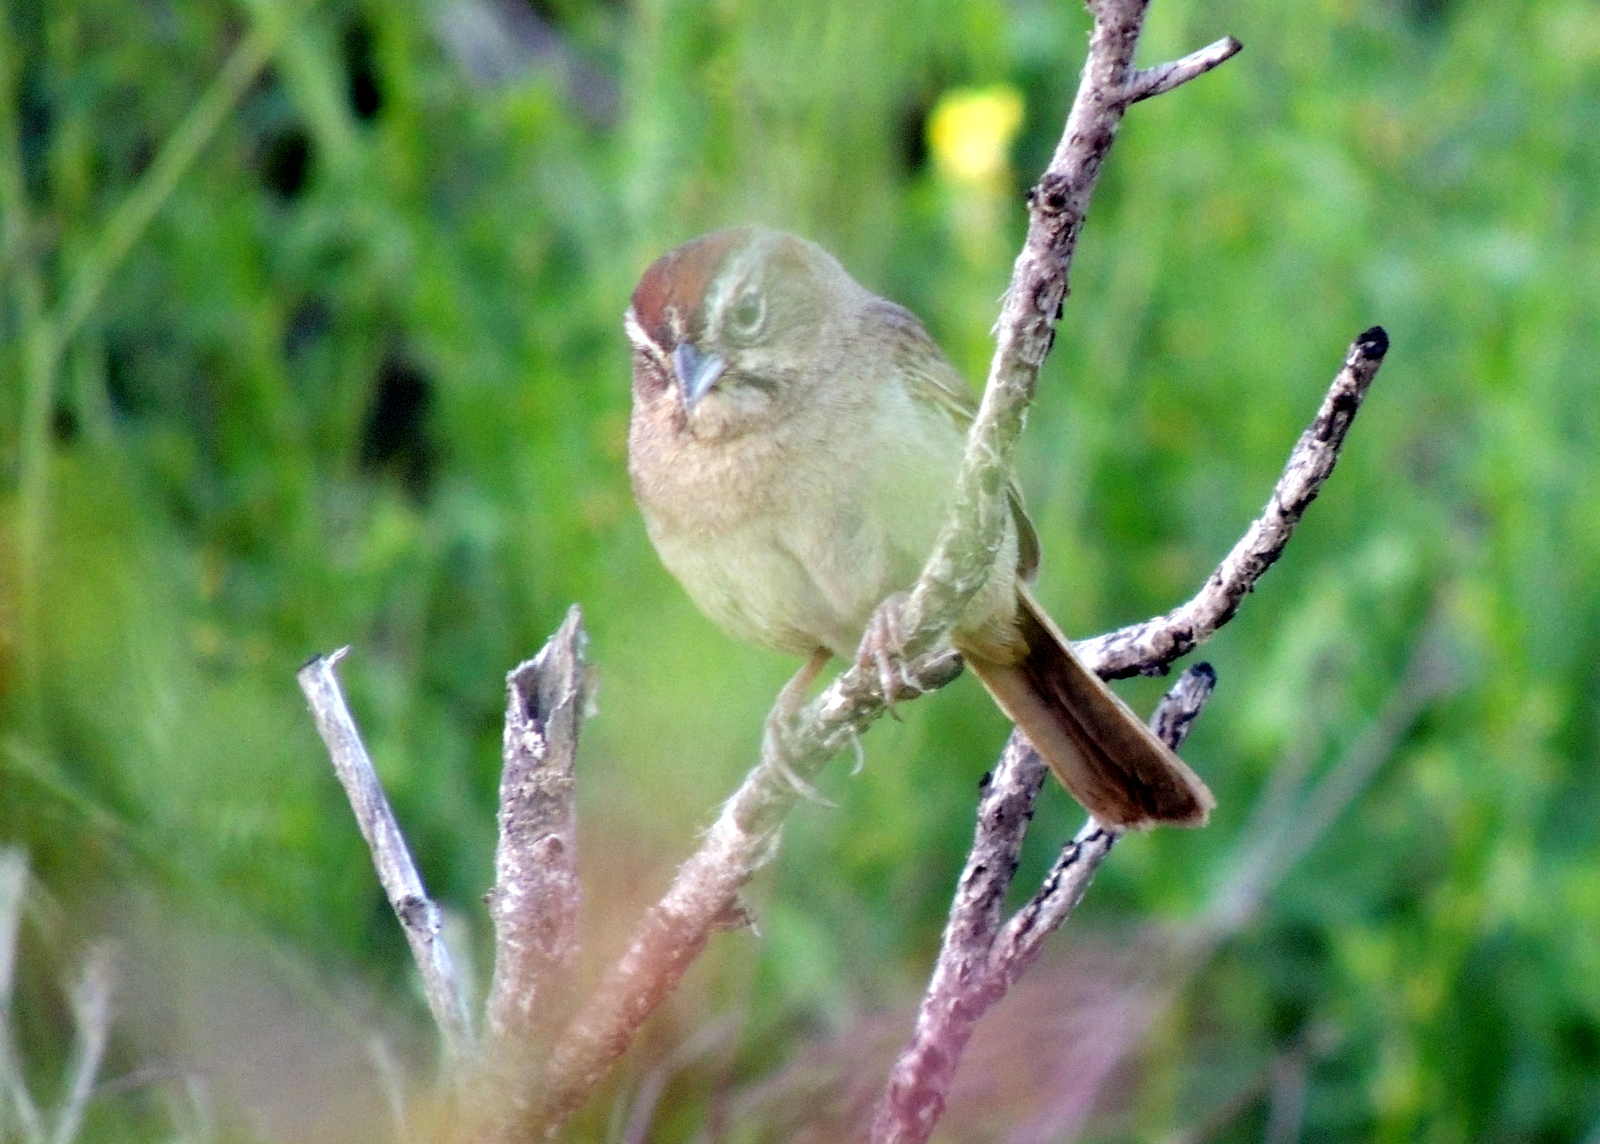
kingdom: Animalia
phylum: Chordata
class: Aves
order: Passeriformes
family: Passerellidae
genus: Aimophila
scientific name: Aimophila ruficeps
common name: Rufous-crowned sparrow
